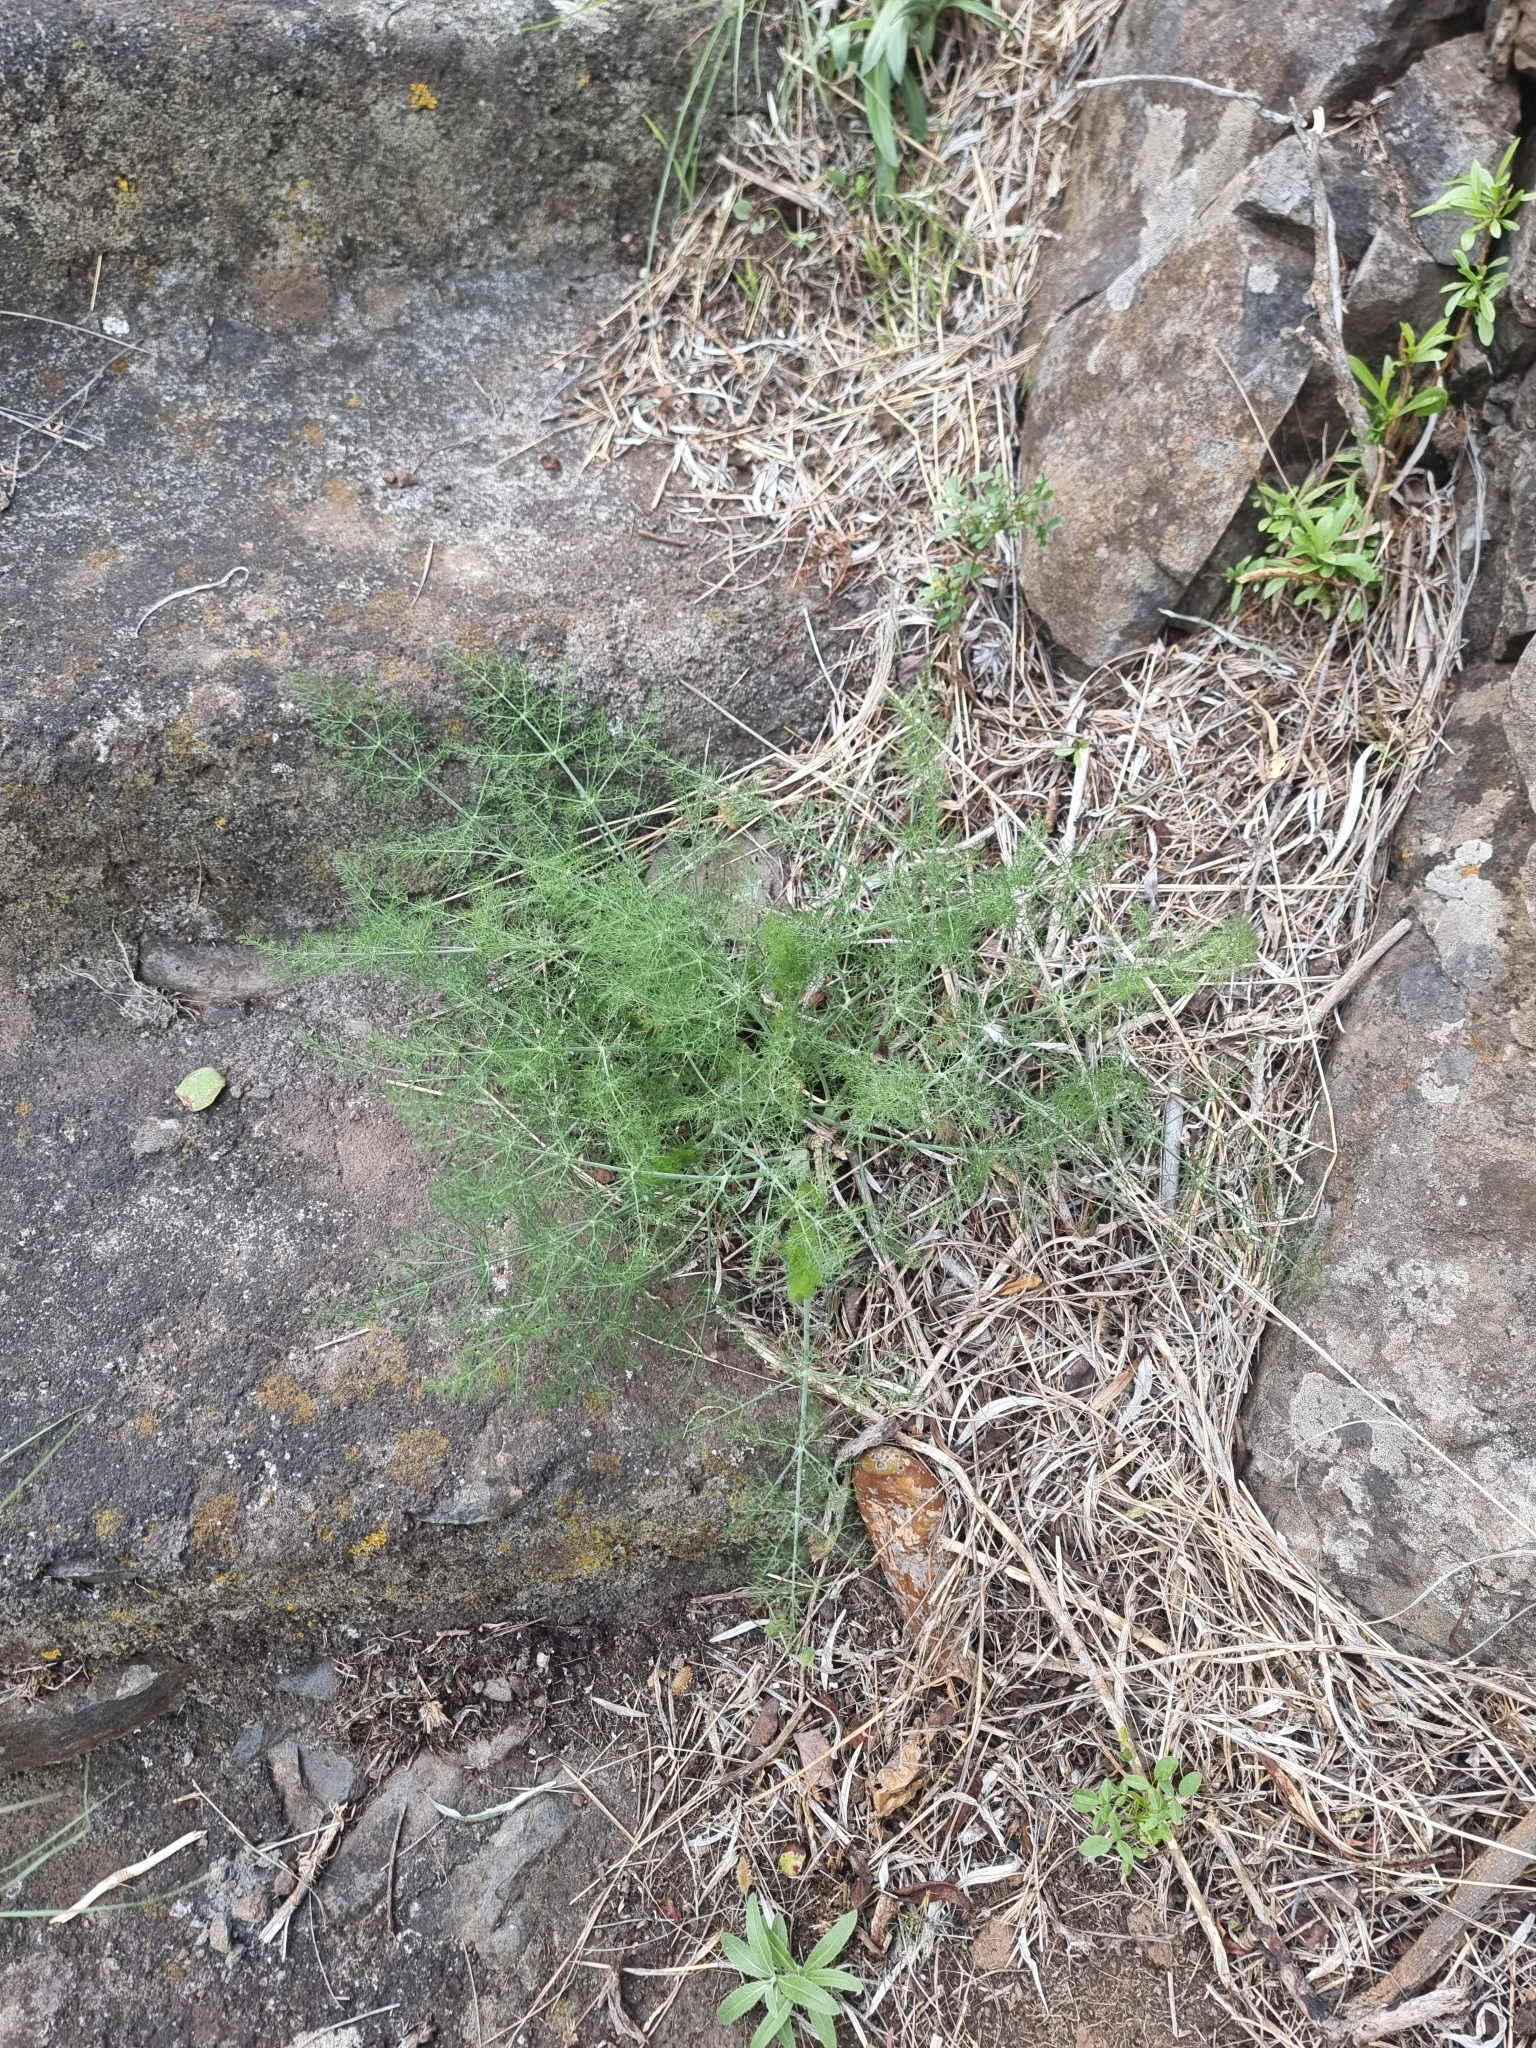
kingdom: Plantae
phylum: Tracheophyta
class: Magnoliopsida
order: Apiales
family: Apiaceae
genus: Foeniculum
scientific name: Foeniculum vulgare
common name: Fennel
